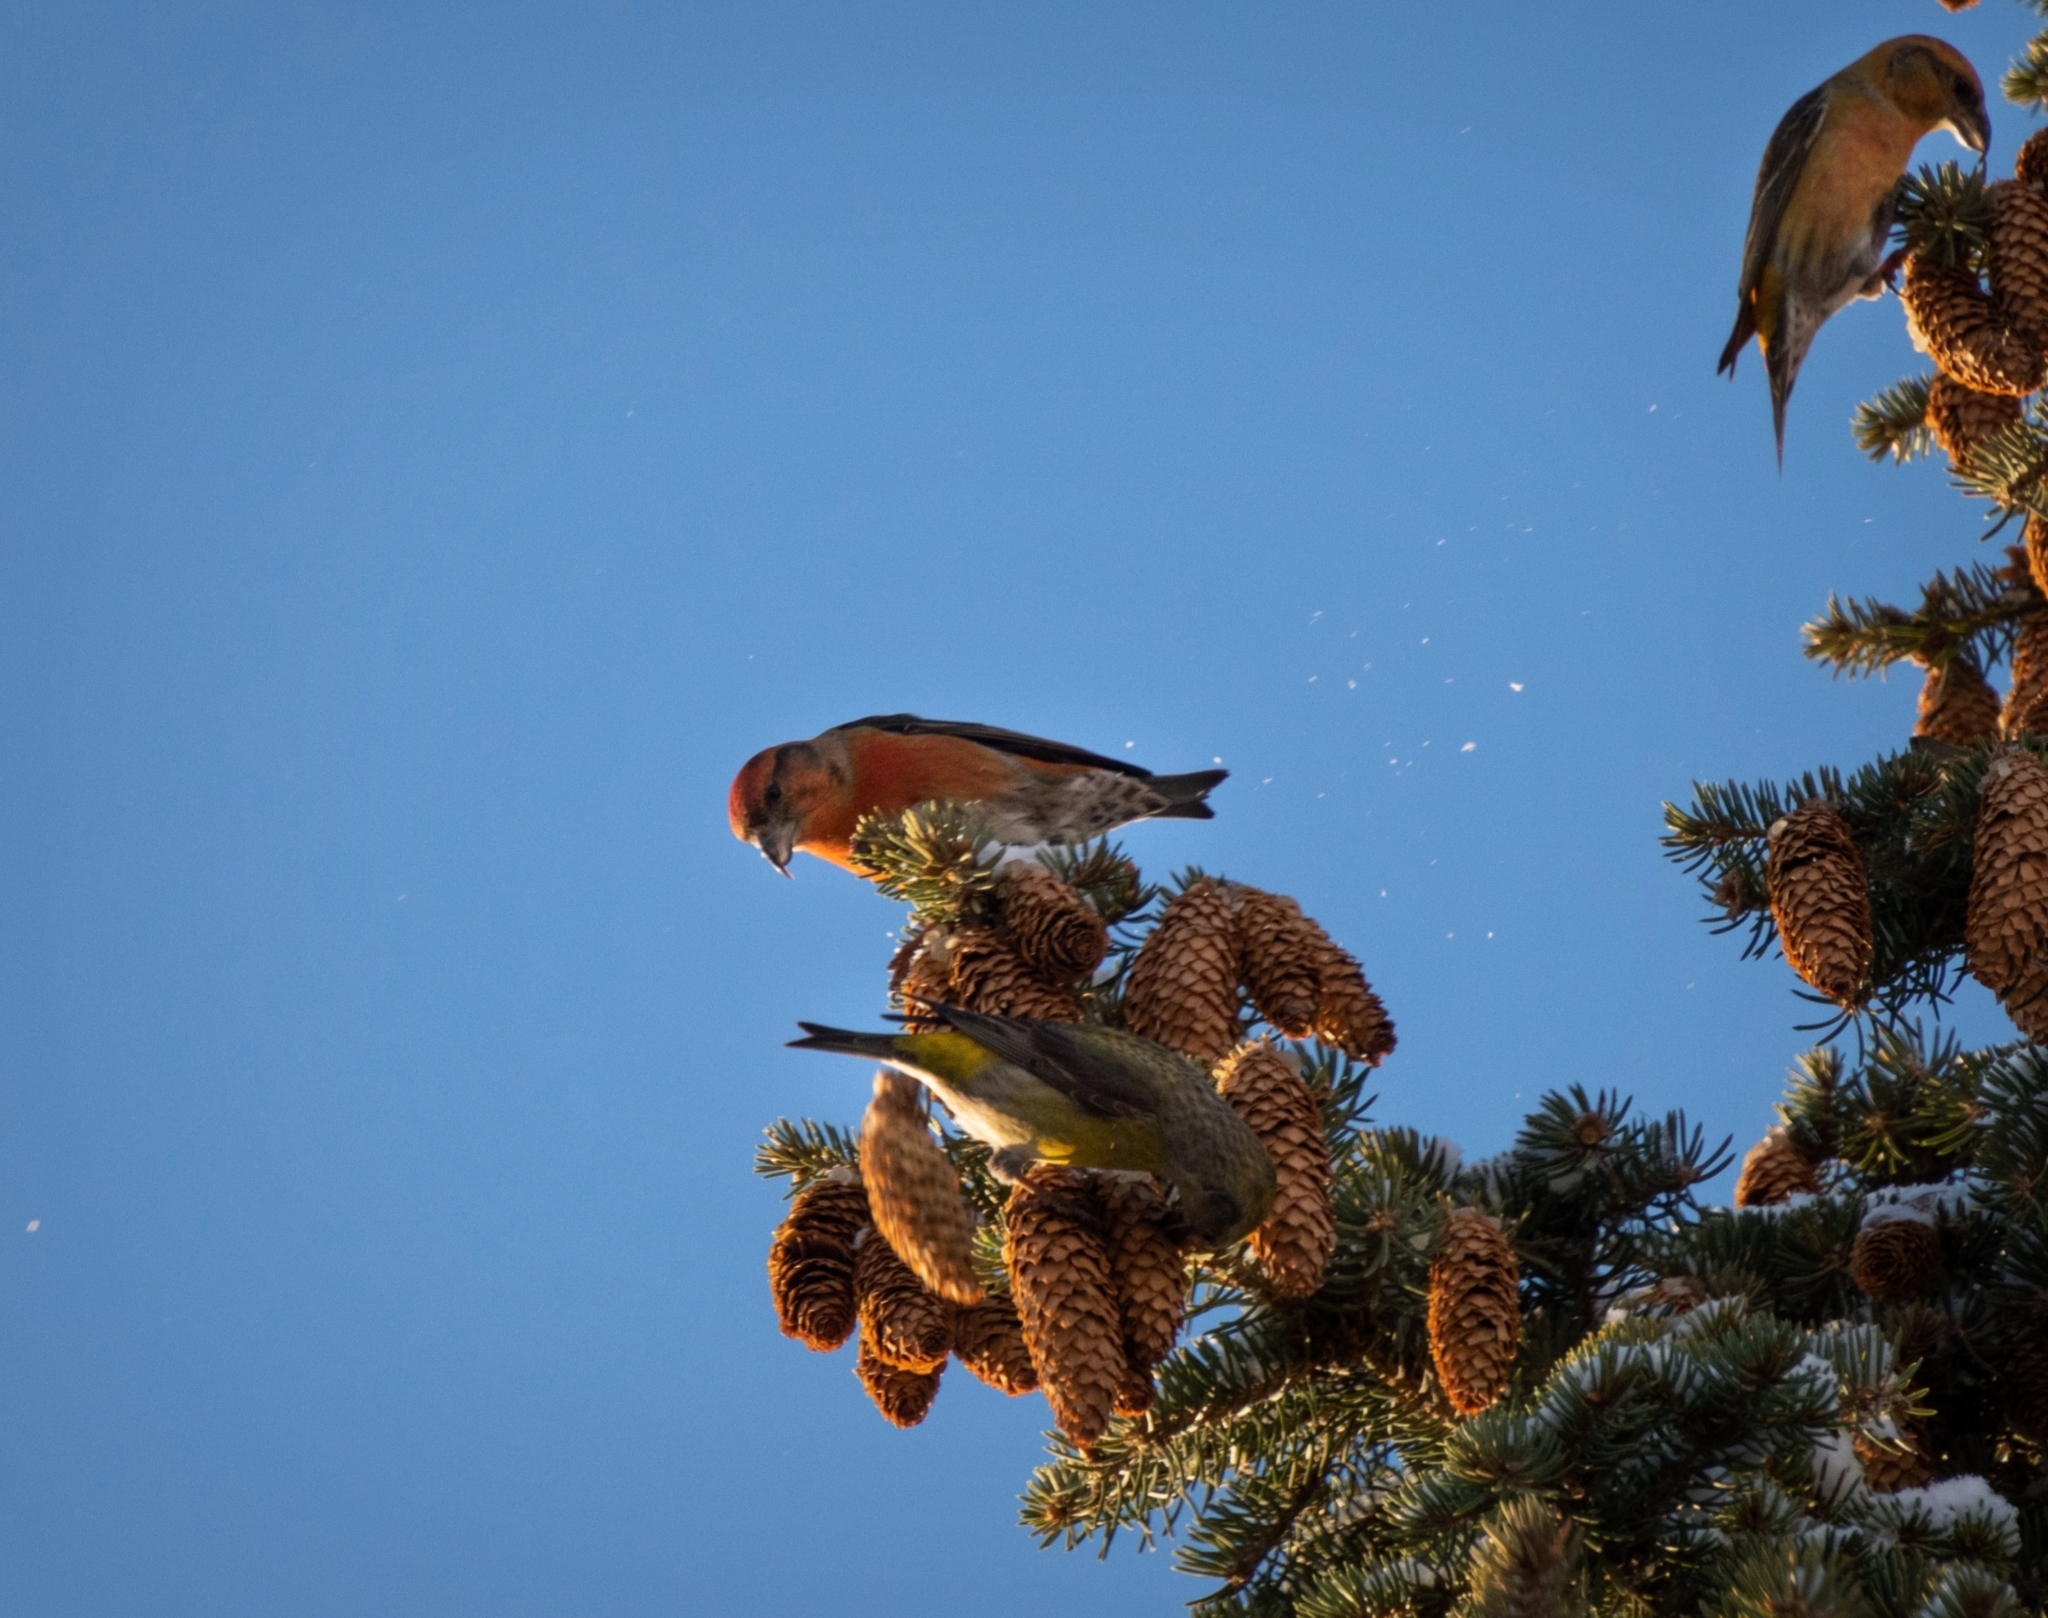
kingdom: Animalia
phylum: Chordata
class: Aves
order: Passeriformes
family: Fringillidae
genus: Loxia
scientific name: Loxia curvirostra
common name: Red crossbill
